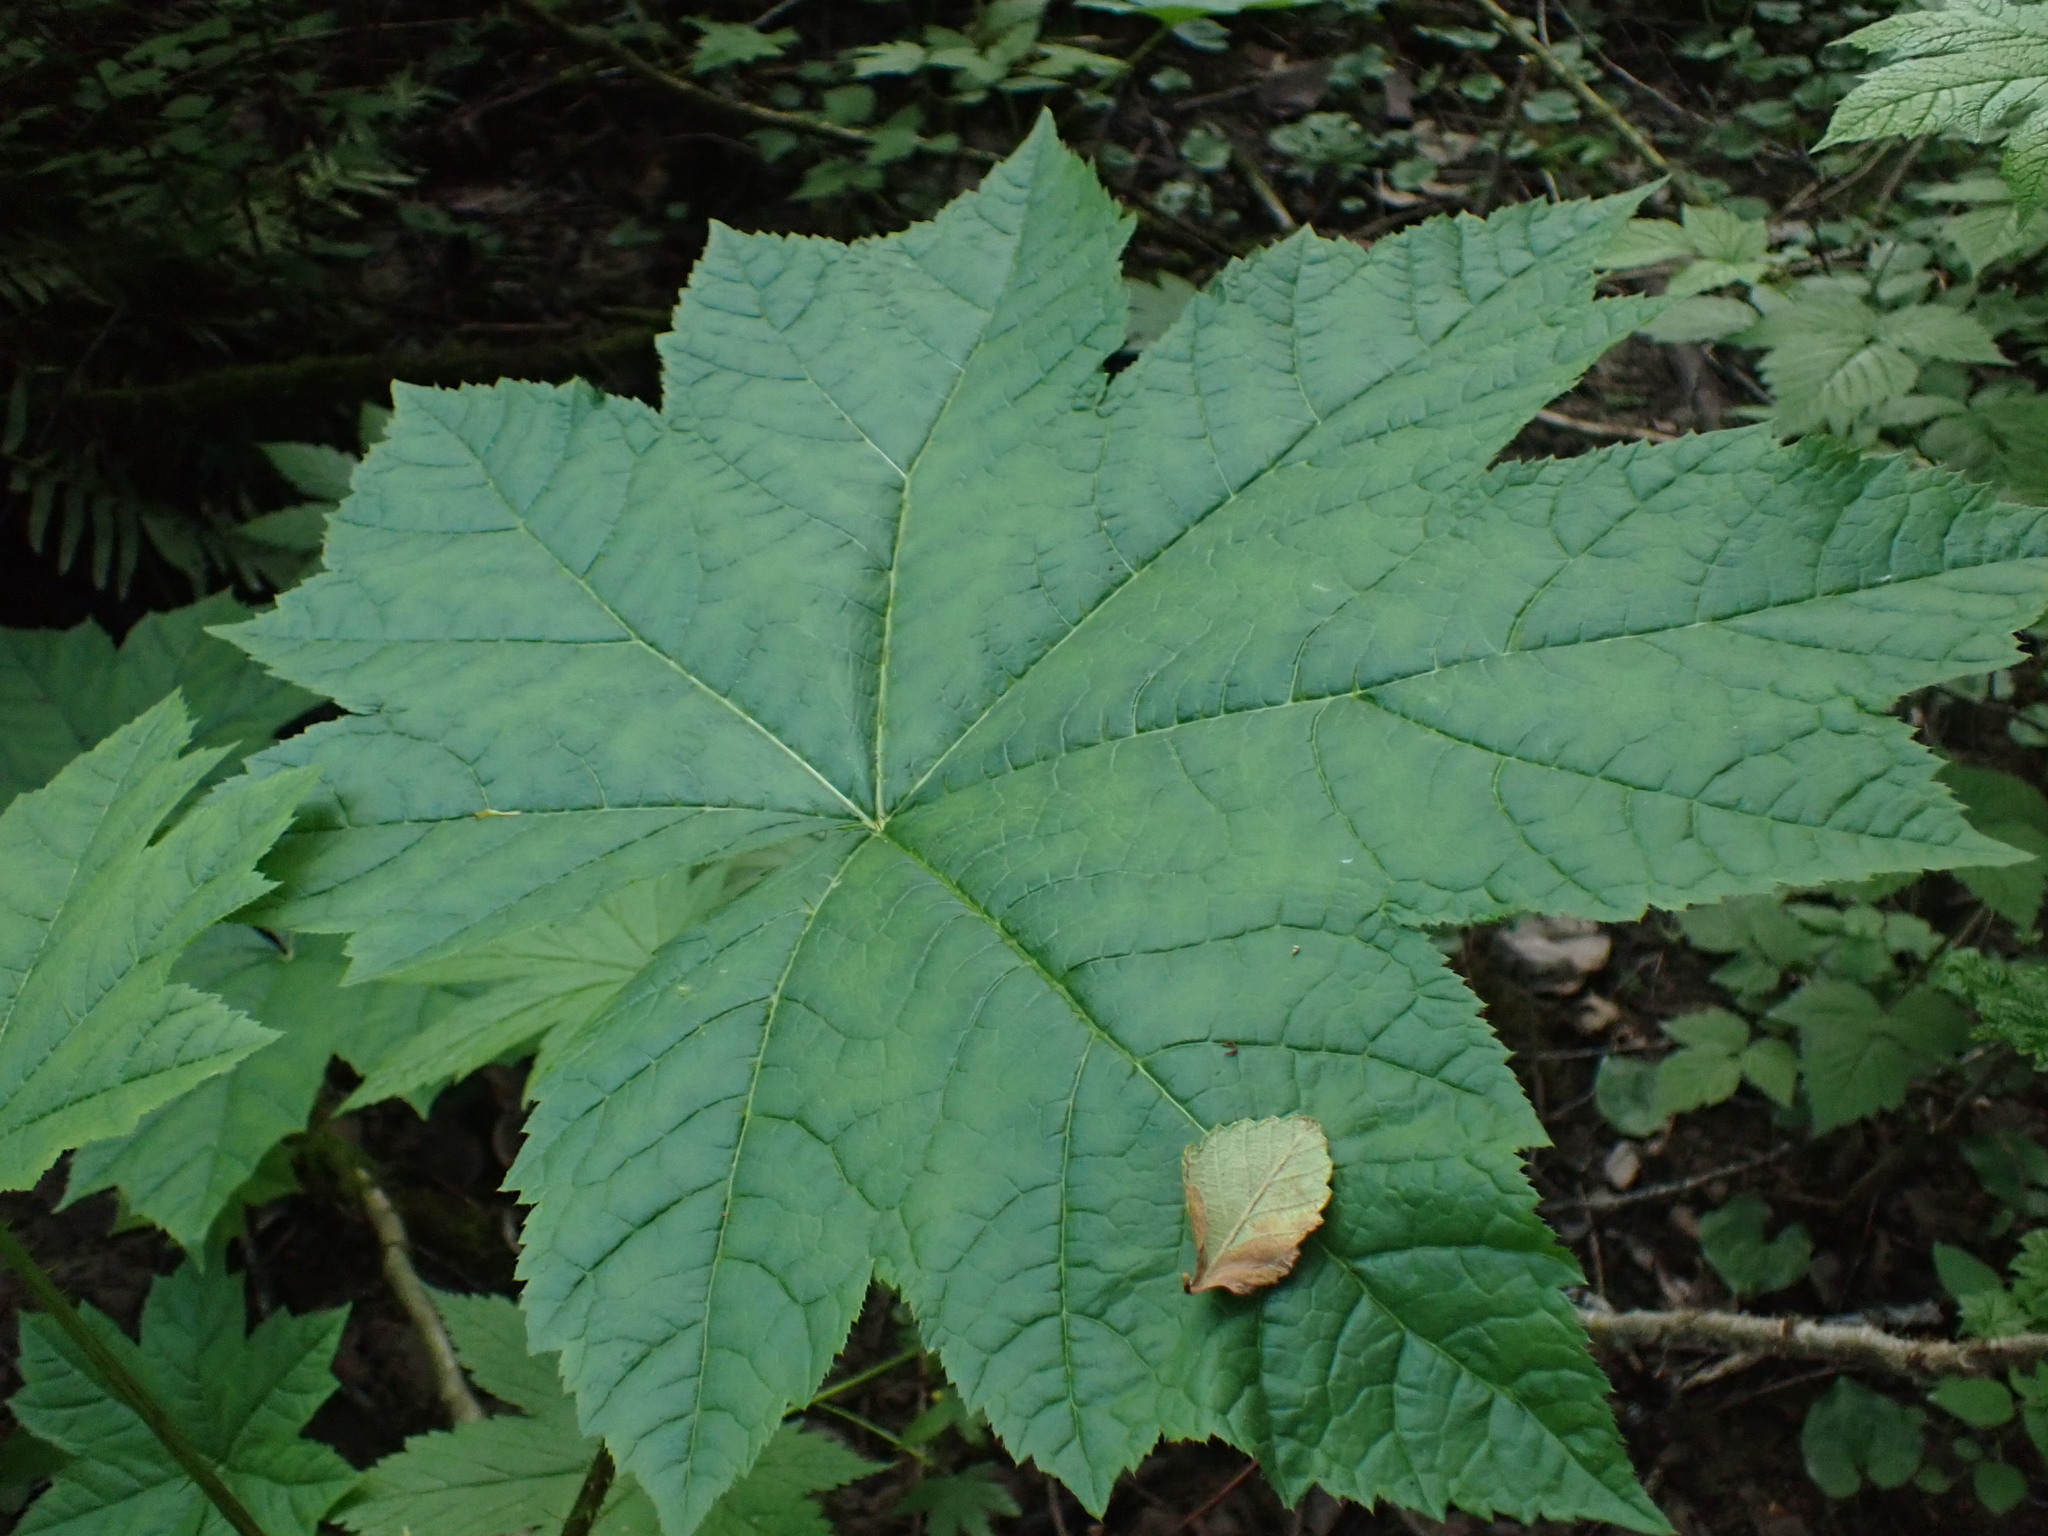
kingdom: Plantae
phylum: Tracheophyta
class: Magnoliopsida
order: Apiales
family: Araliaceae
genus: Oplopanax
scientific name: Oplopanax horridus
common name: Devil's walking-stick
